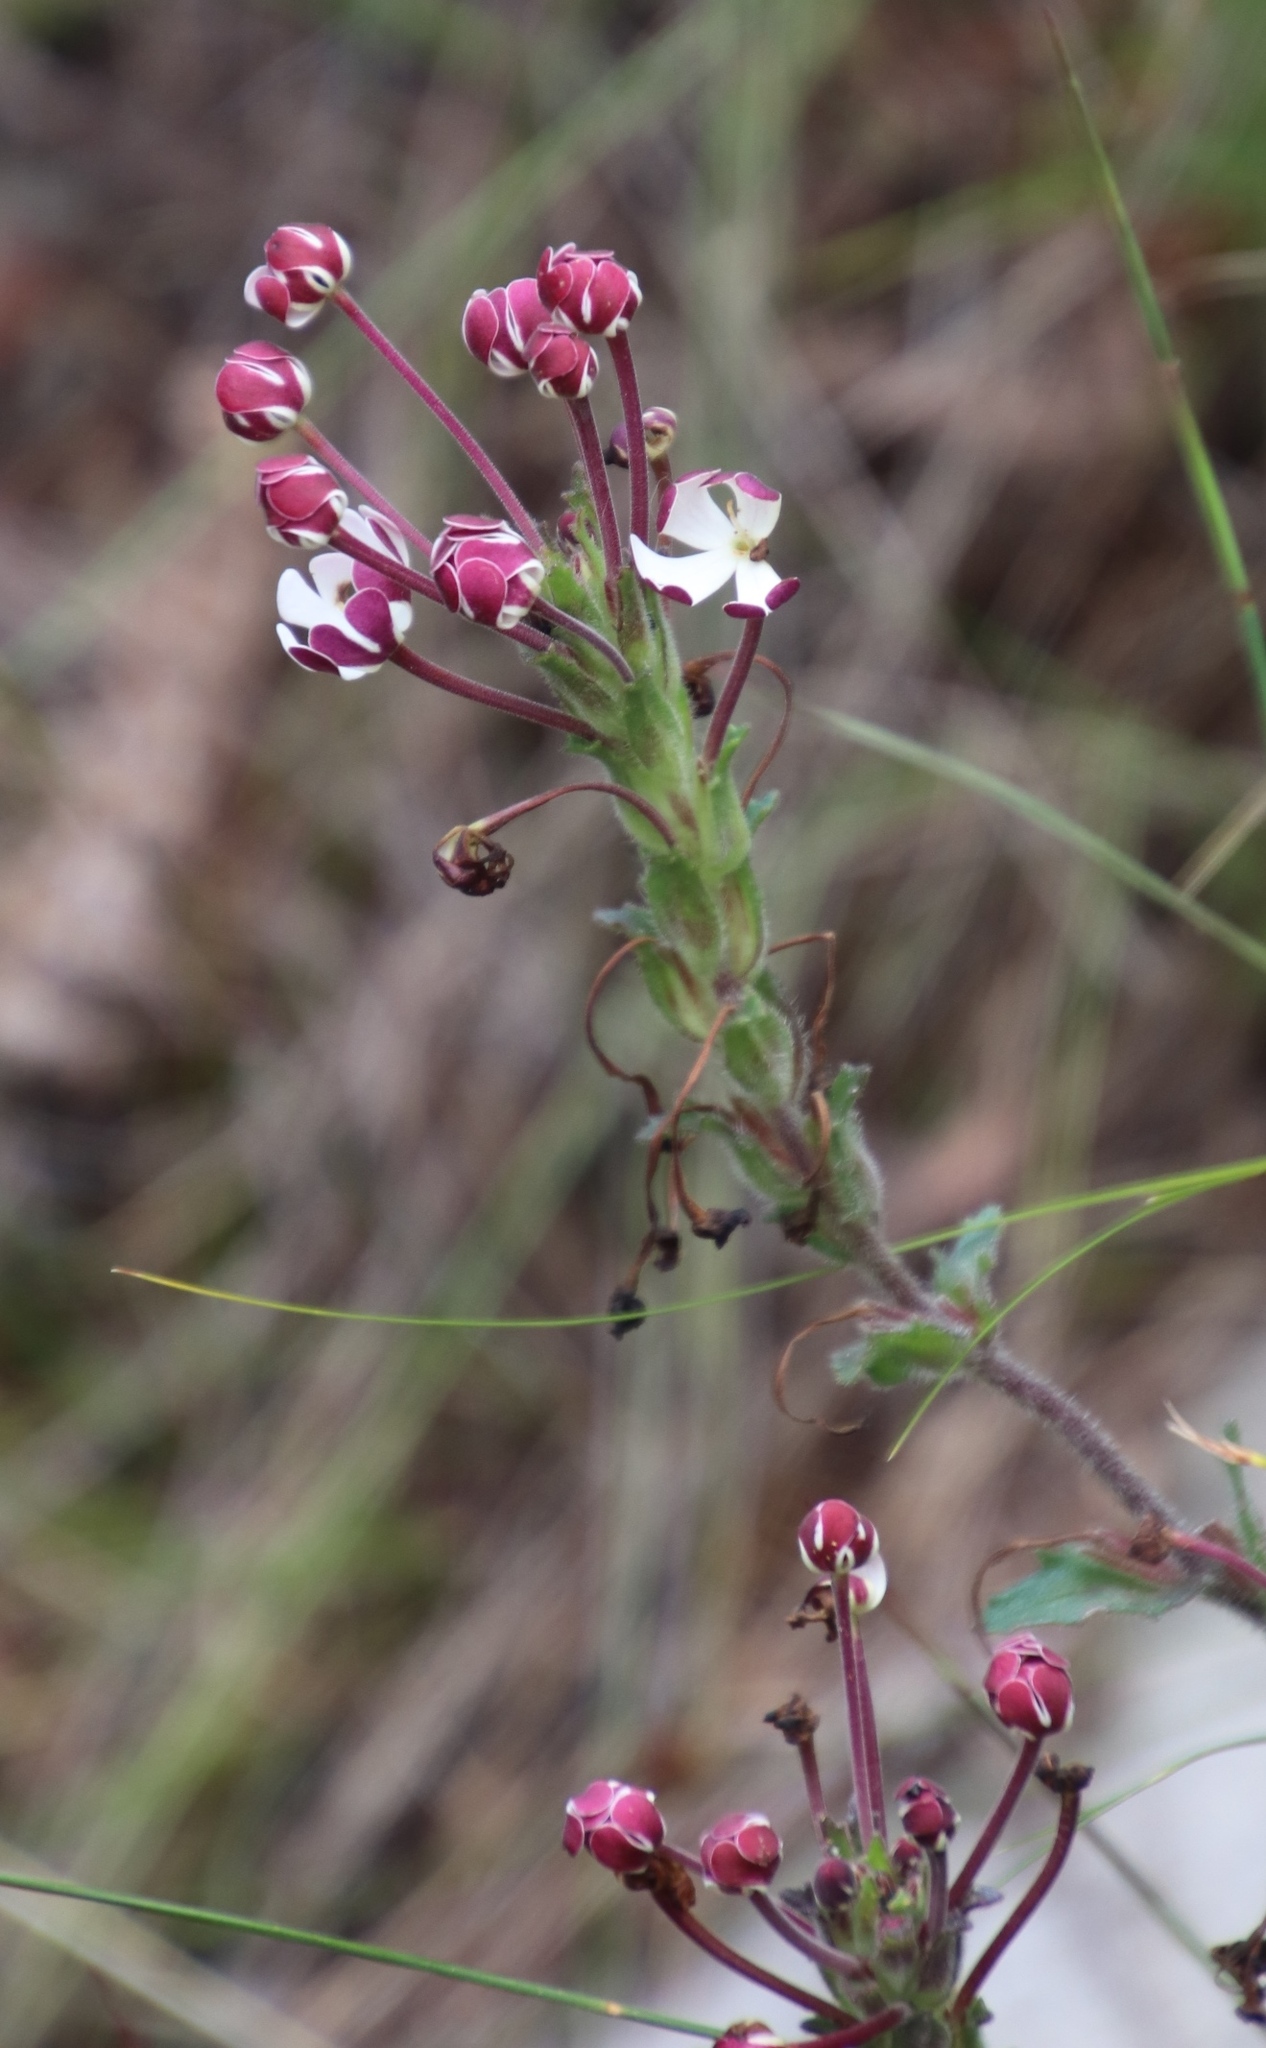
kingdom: Plantae
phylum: Tracheophyta
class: Magnoliopsida
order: Lamiales
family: Scrophulariaceae
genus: Zaluzianskya
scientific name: Zaluzianskya capensis
